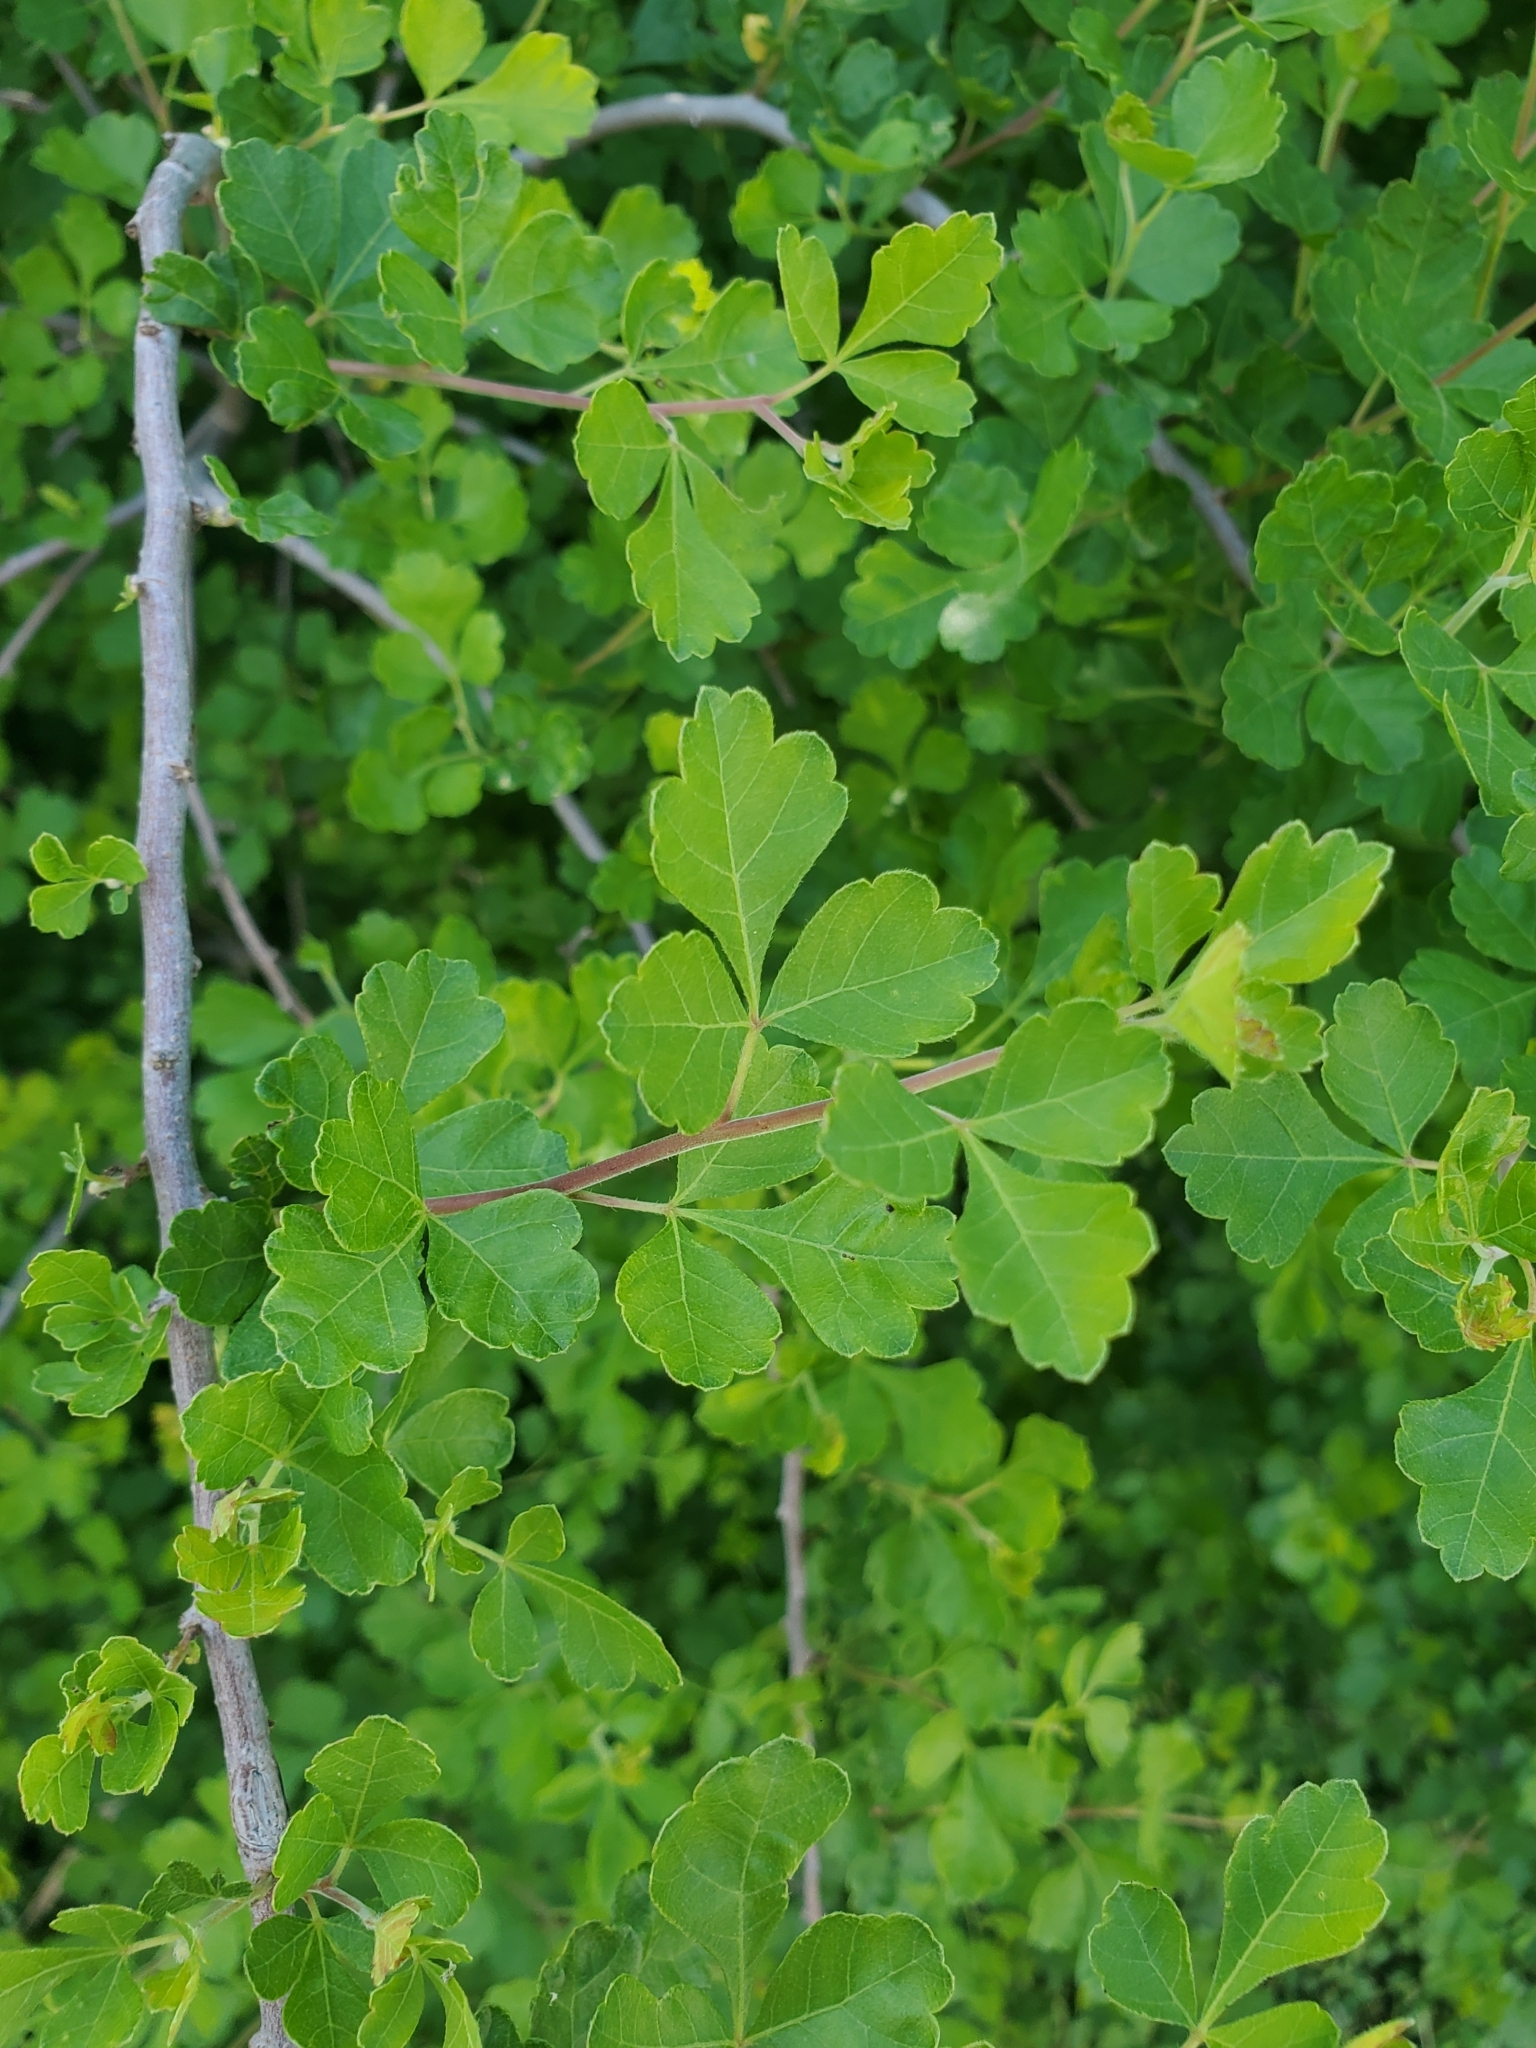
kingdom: Plantae
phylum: Tracheophyta
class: Magnoliopsida
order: Sapindales
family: Anacardiaceae
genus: Rhus
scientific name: Rhus aromatica
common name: Aromatic sumac
